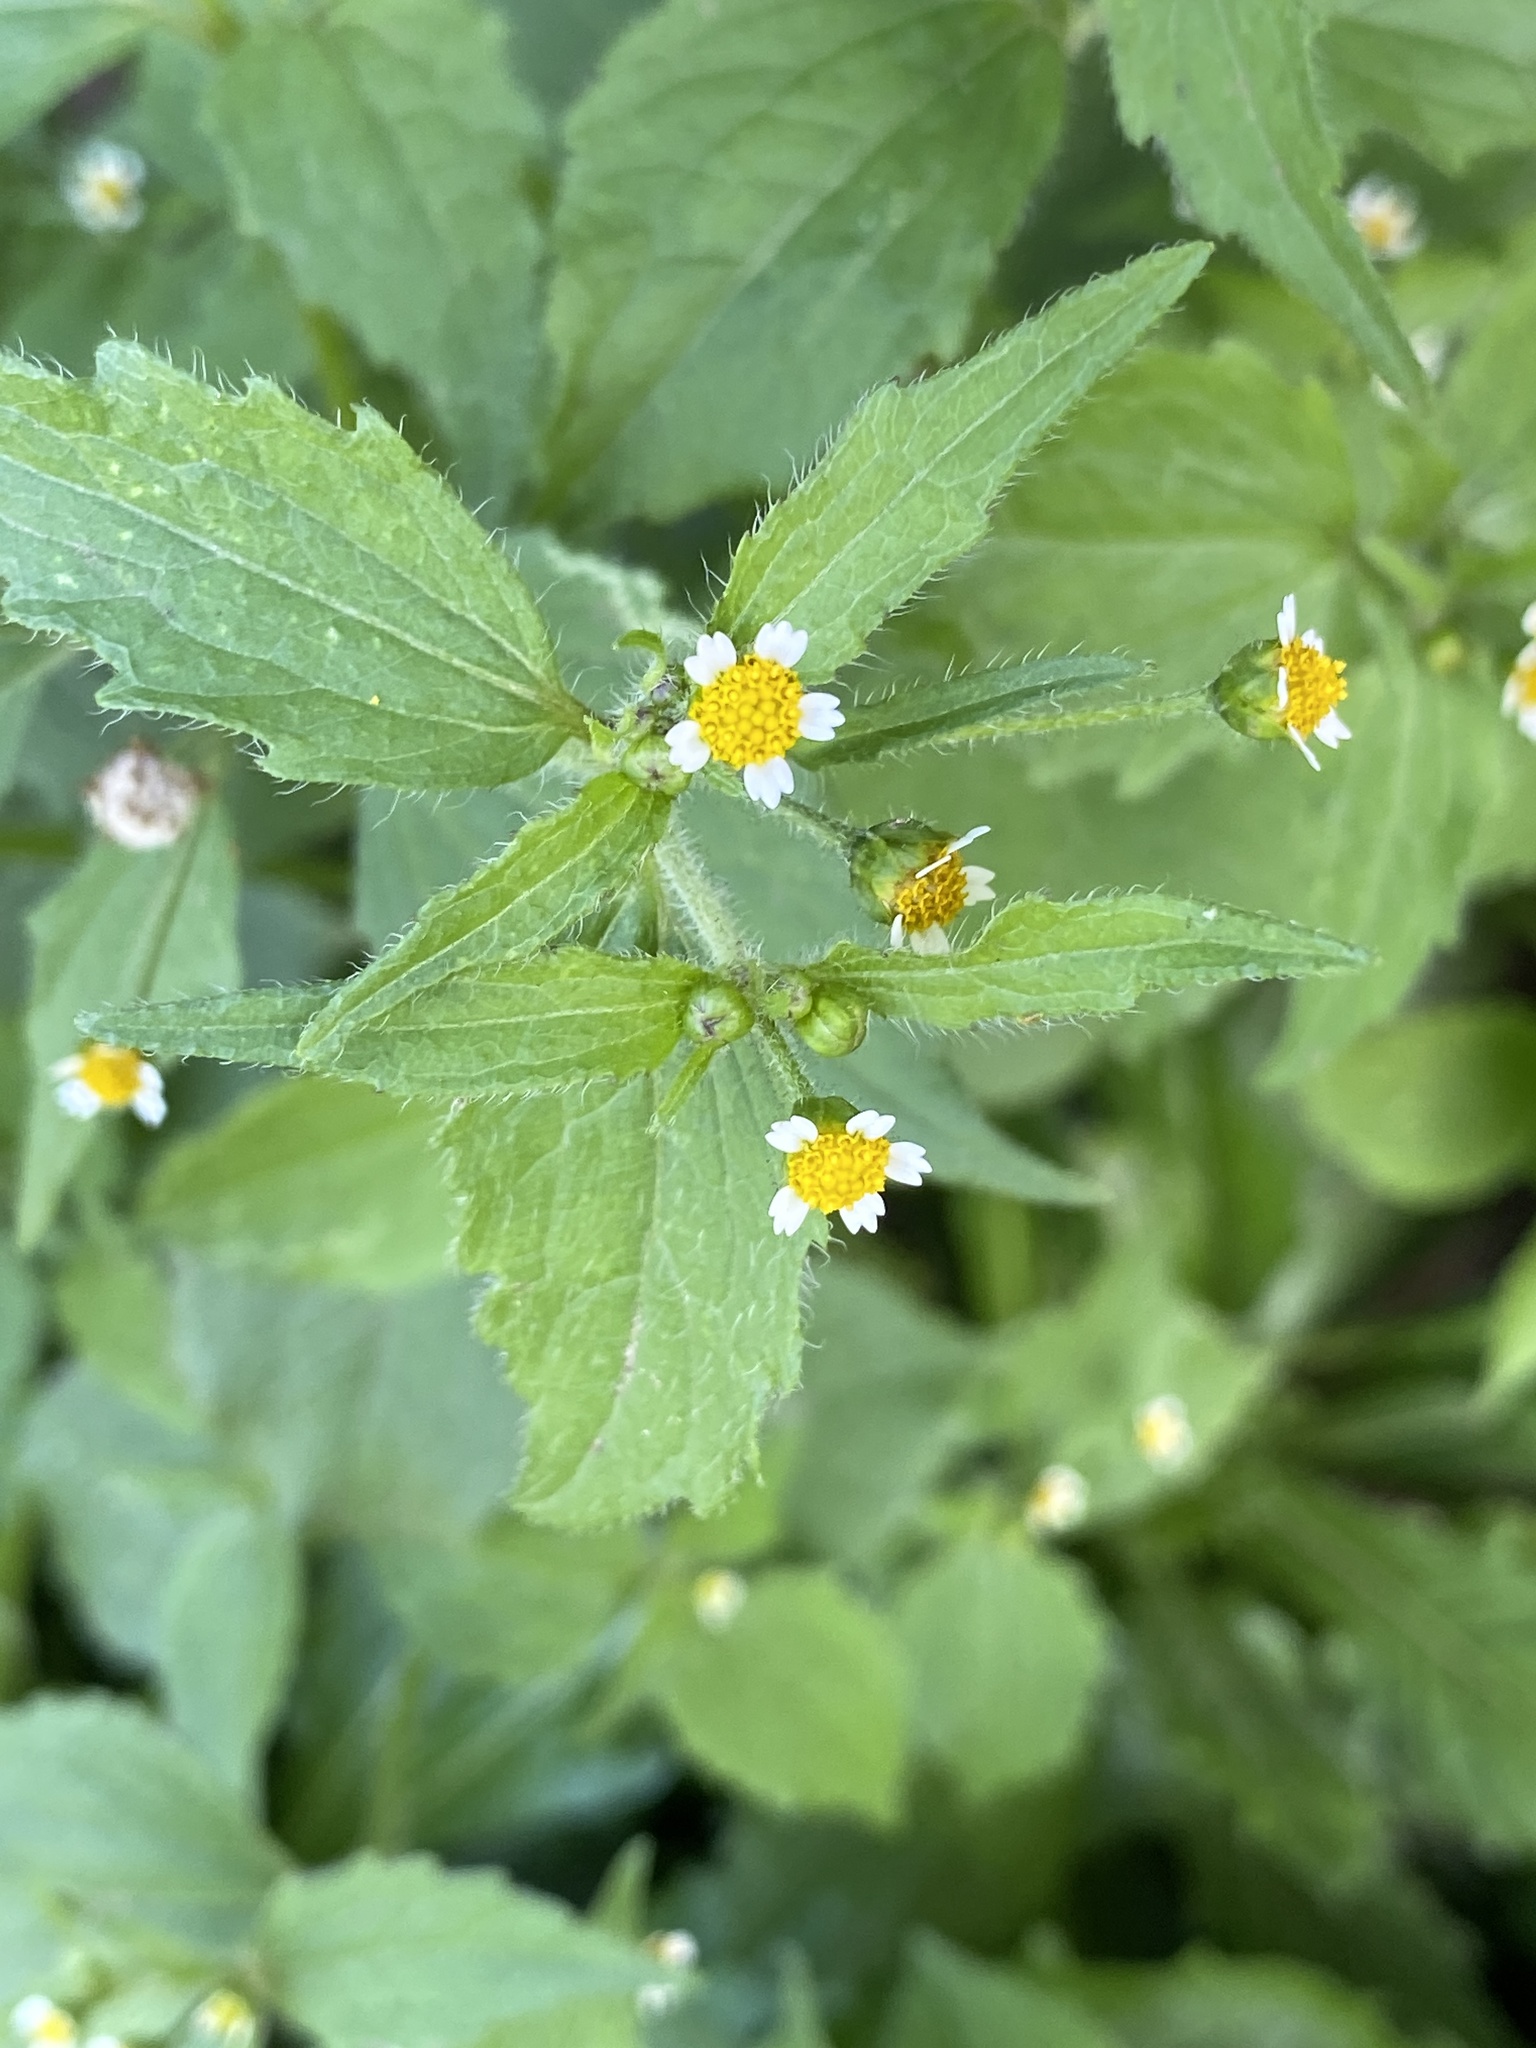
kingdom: Plantae
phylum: Tracheophyta
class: Magnoliopsida
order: Asterales
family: Asteraceae
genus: Galinsoga
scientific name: Galinsoga quadriradiata
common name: Shaggy soldier
